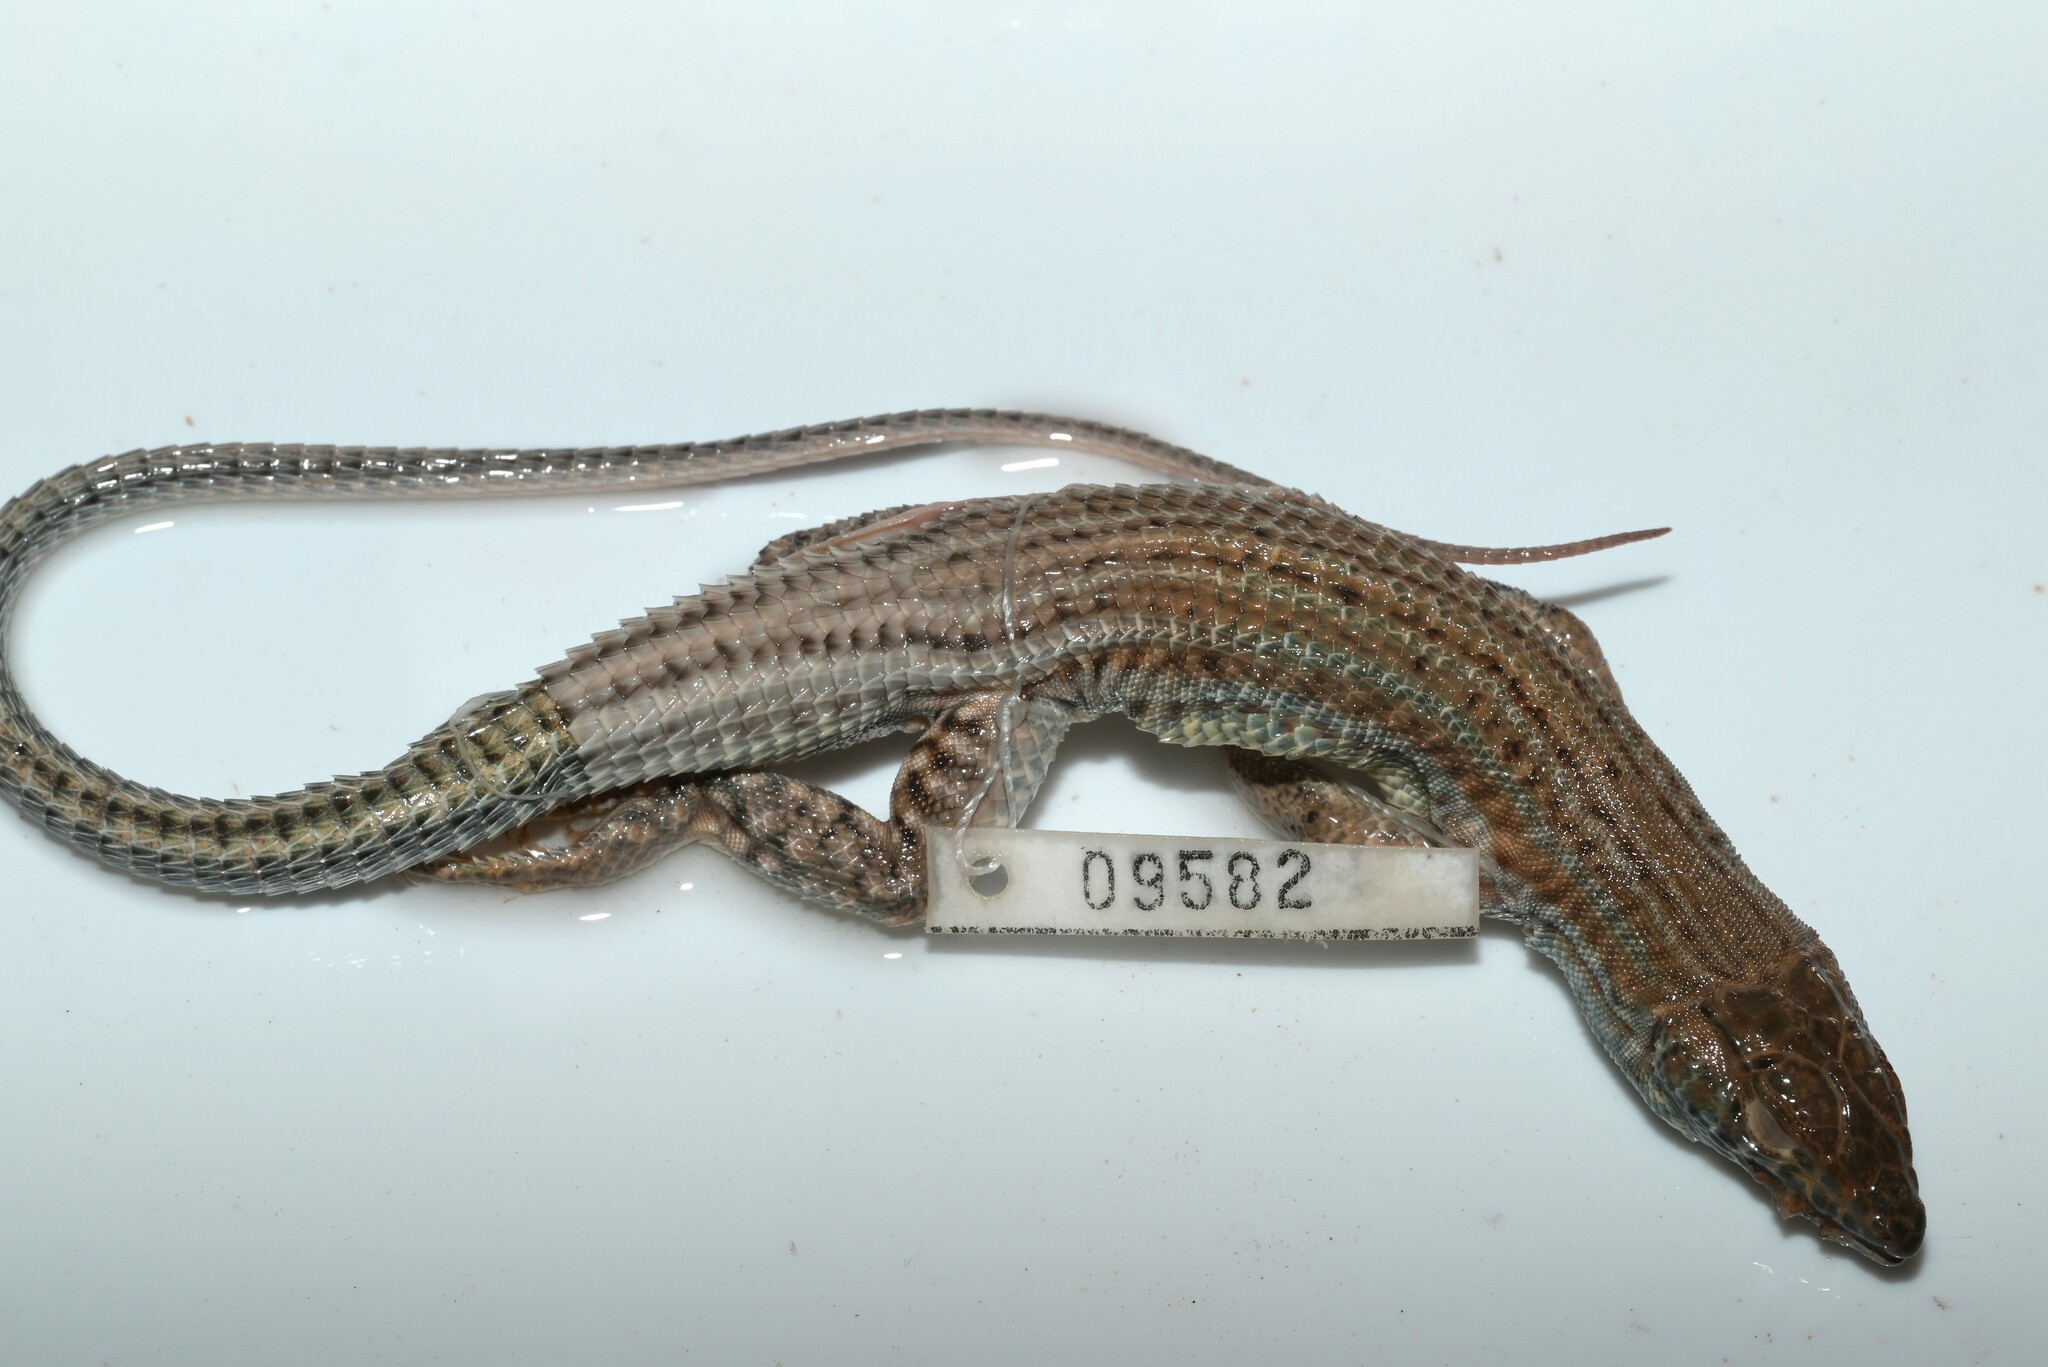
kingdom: Animalia
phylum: Chordata
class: Squamata
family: Lacertidae
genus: Acanthodactylus
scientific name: Acanthodactylus boskianus
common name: Bosc’s fringe-toed lizard
